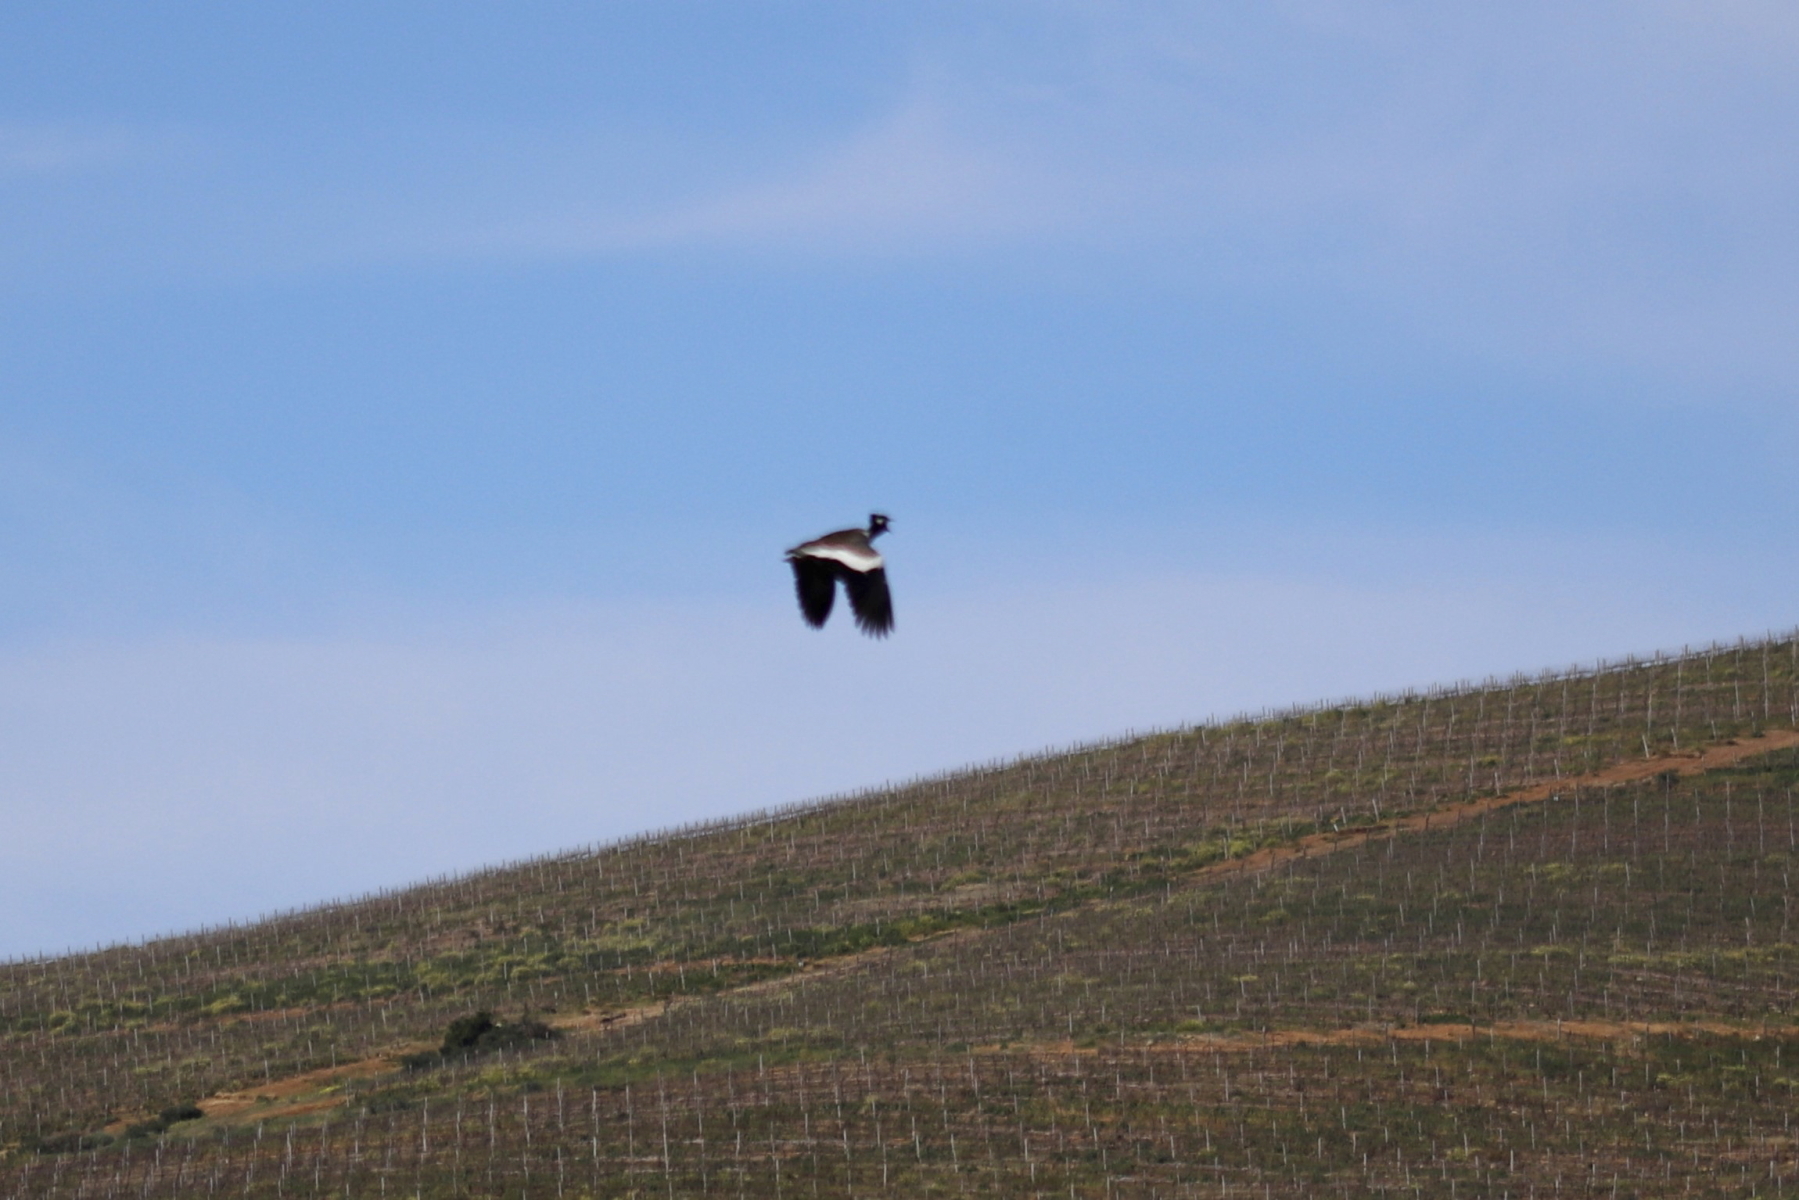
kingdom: Animalia
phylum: Chordata
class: Aves
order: Otidiformes
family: Otididae
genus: Afrotis
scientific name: Afrotis afra
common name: Southern black korhaan
